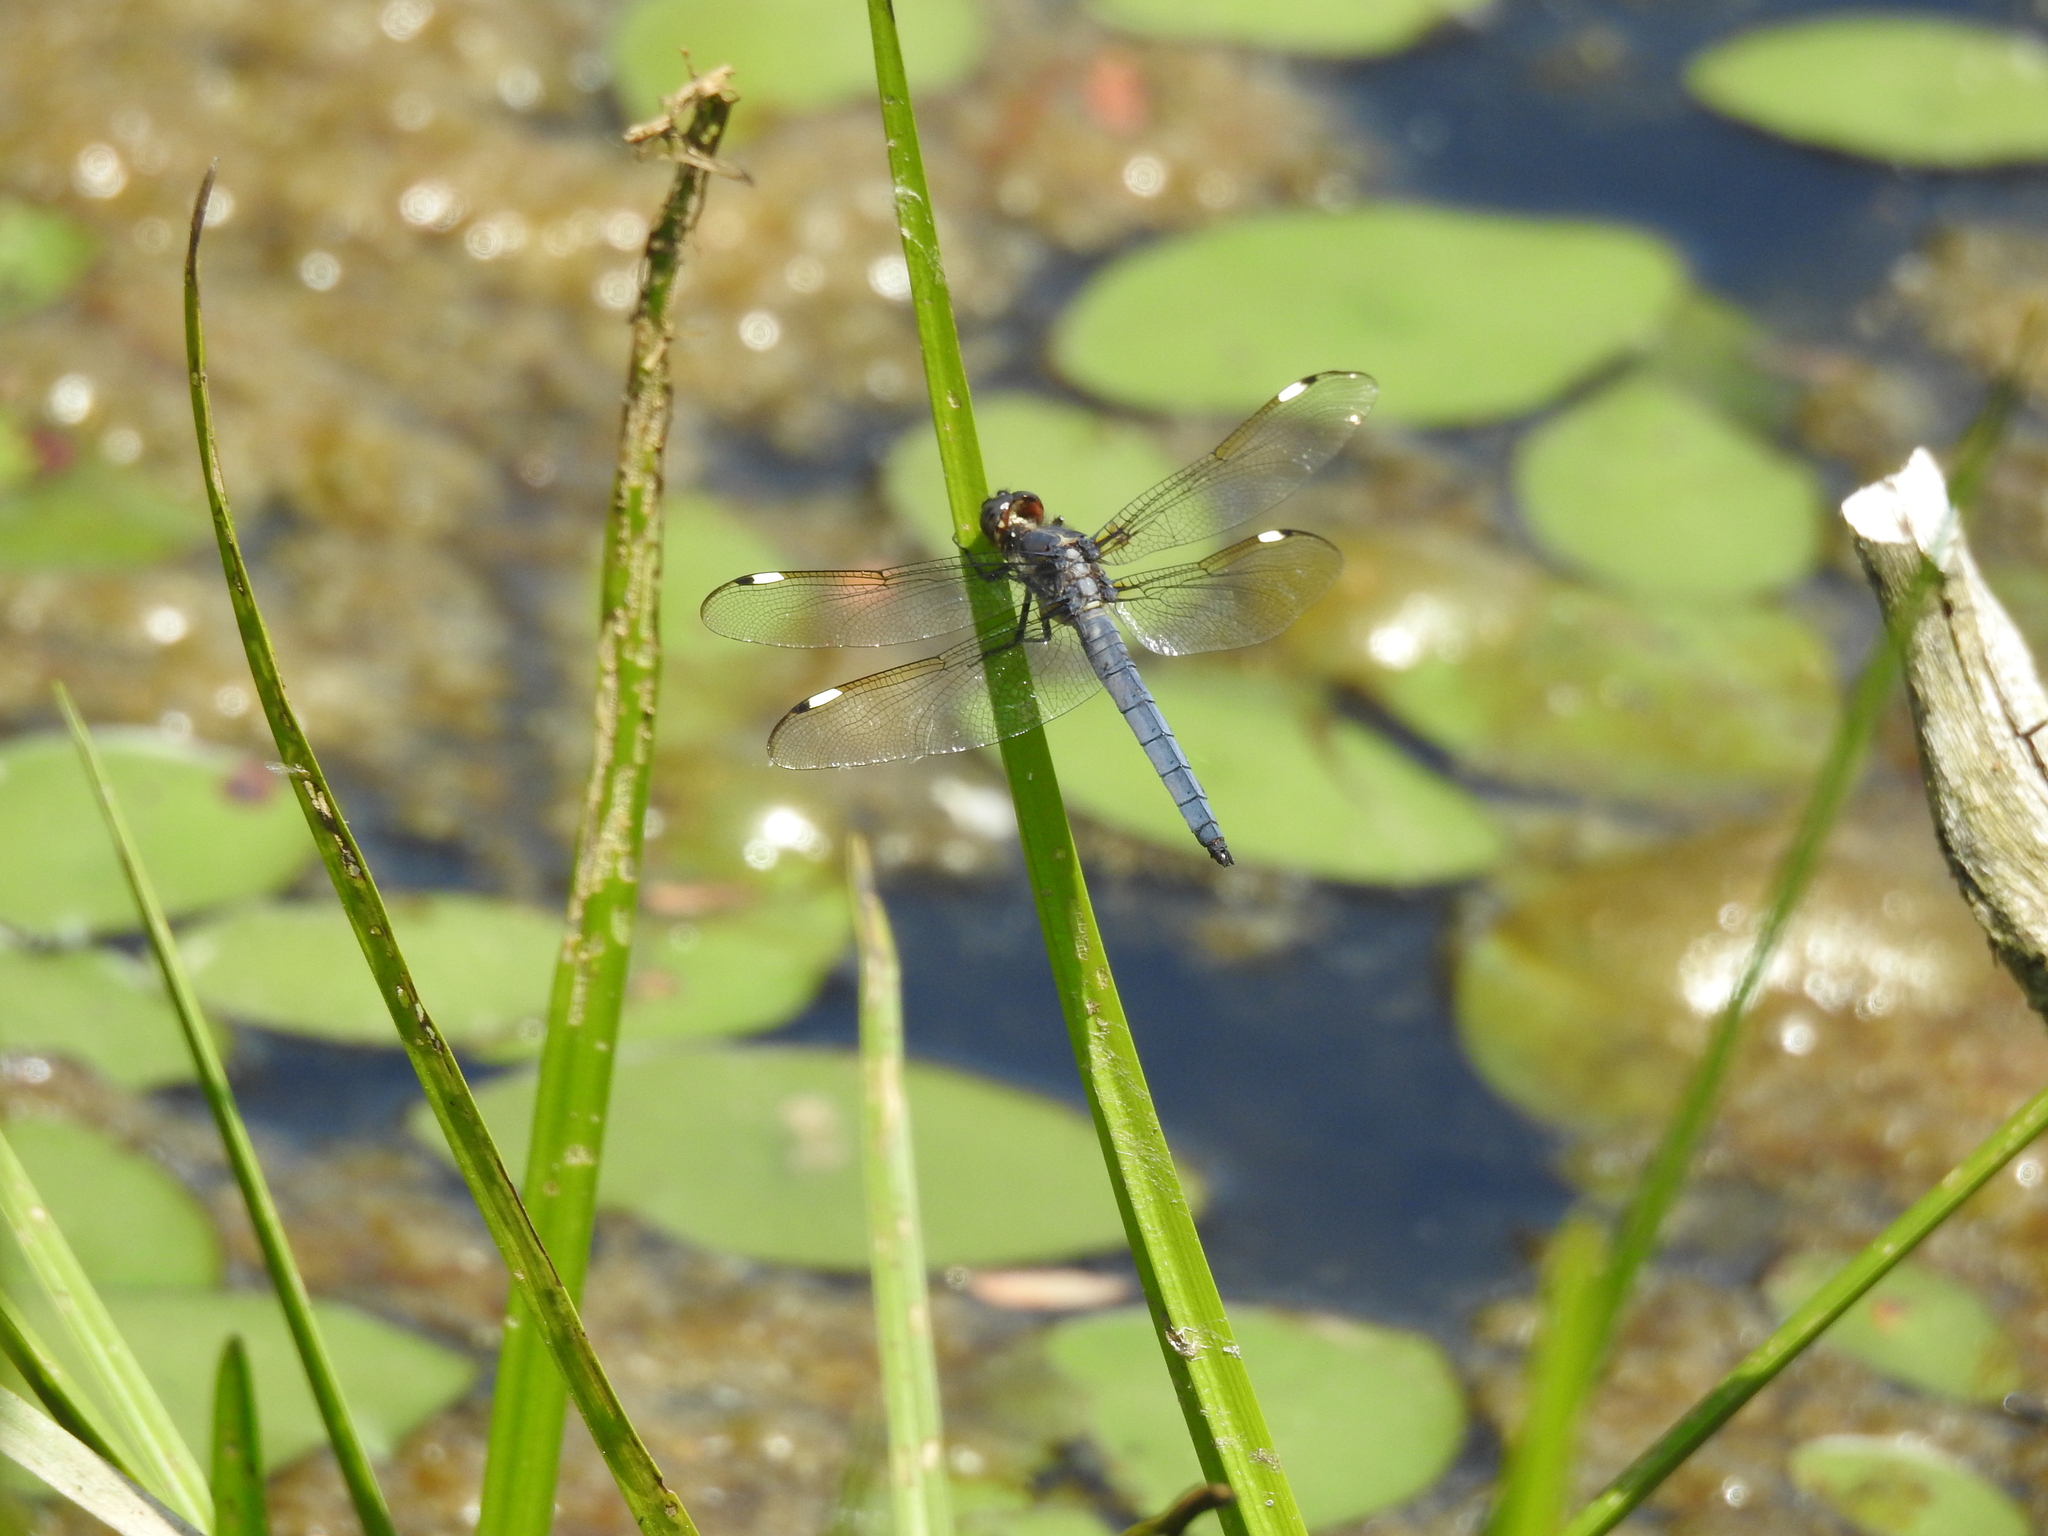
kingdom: Animalia
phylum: Arthropoda
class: Insecta
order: Odonata
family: Libellulidae
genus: Libellula
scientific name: Libellula cyanea
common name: Spangled skimmer
